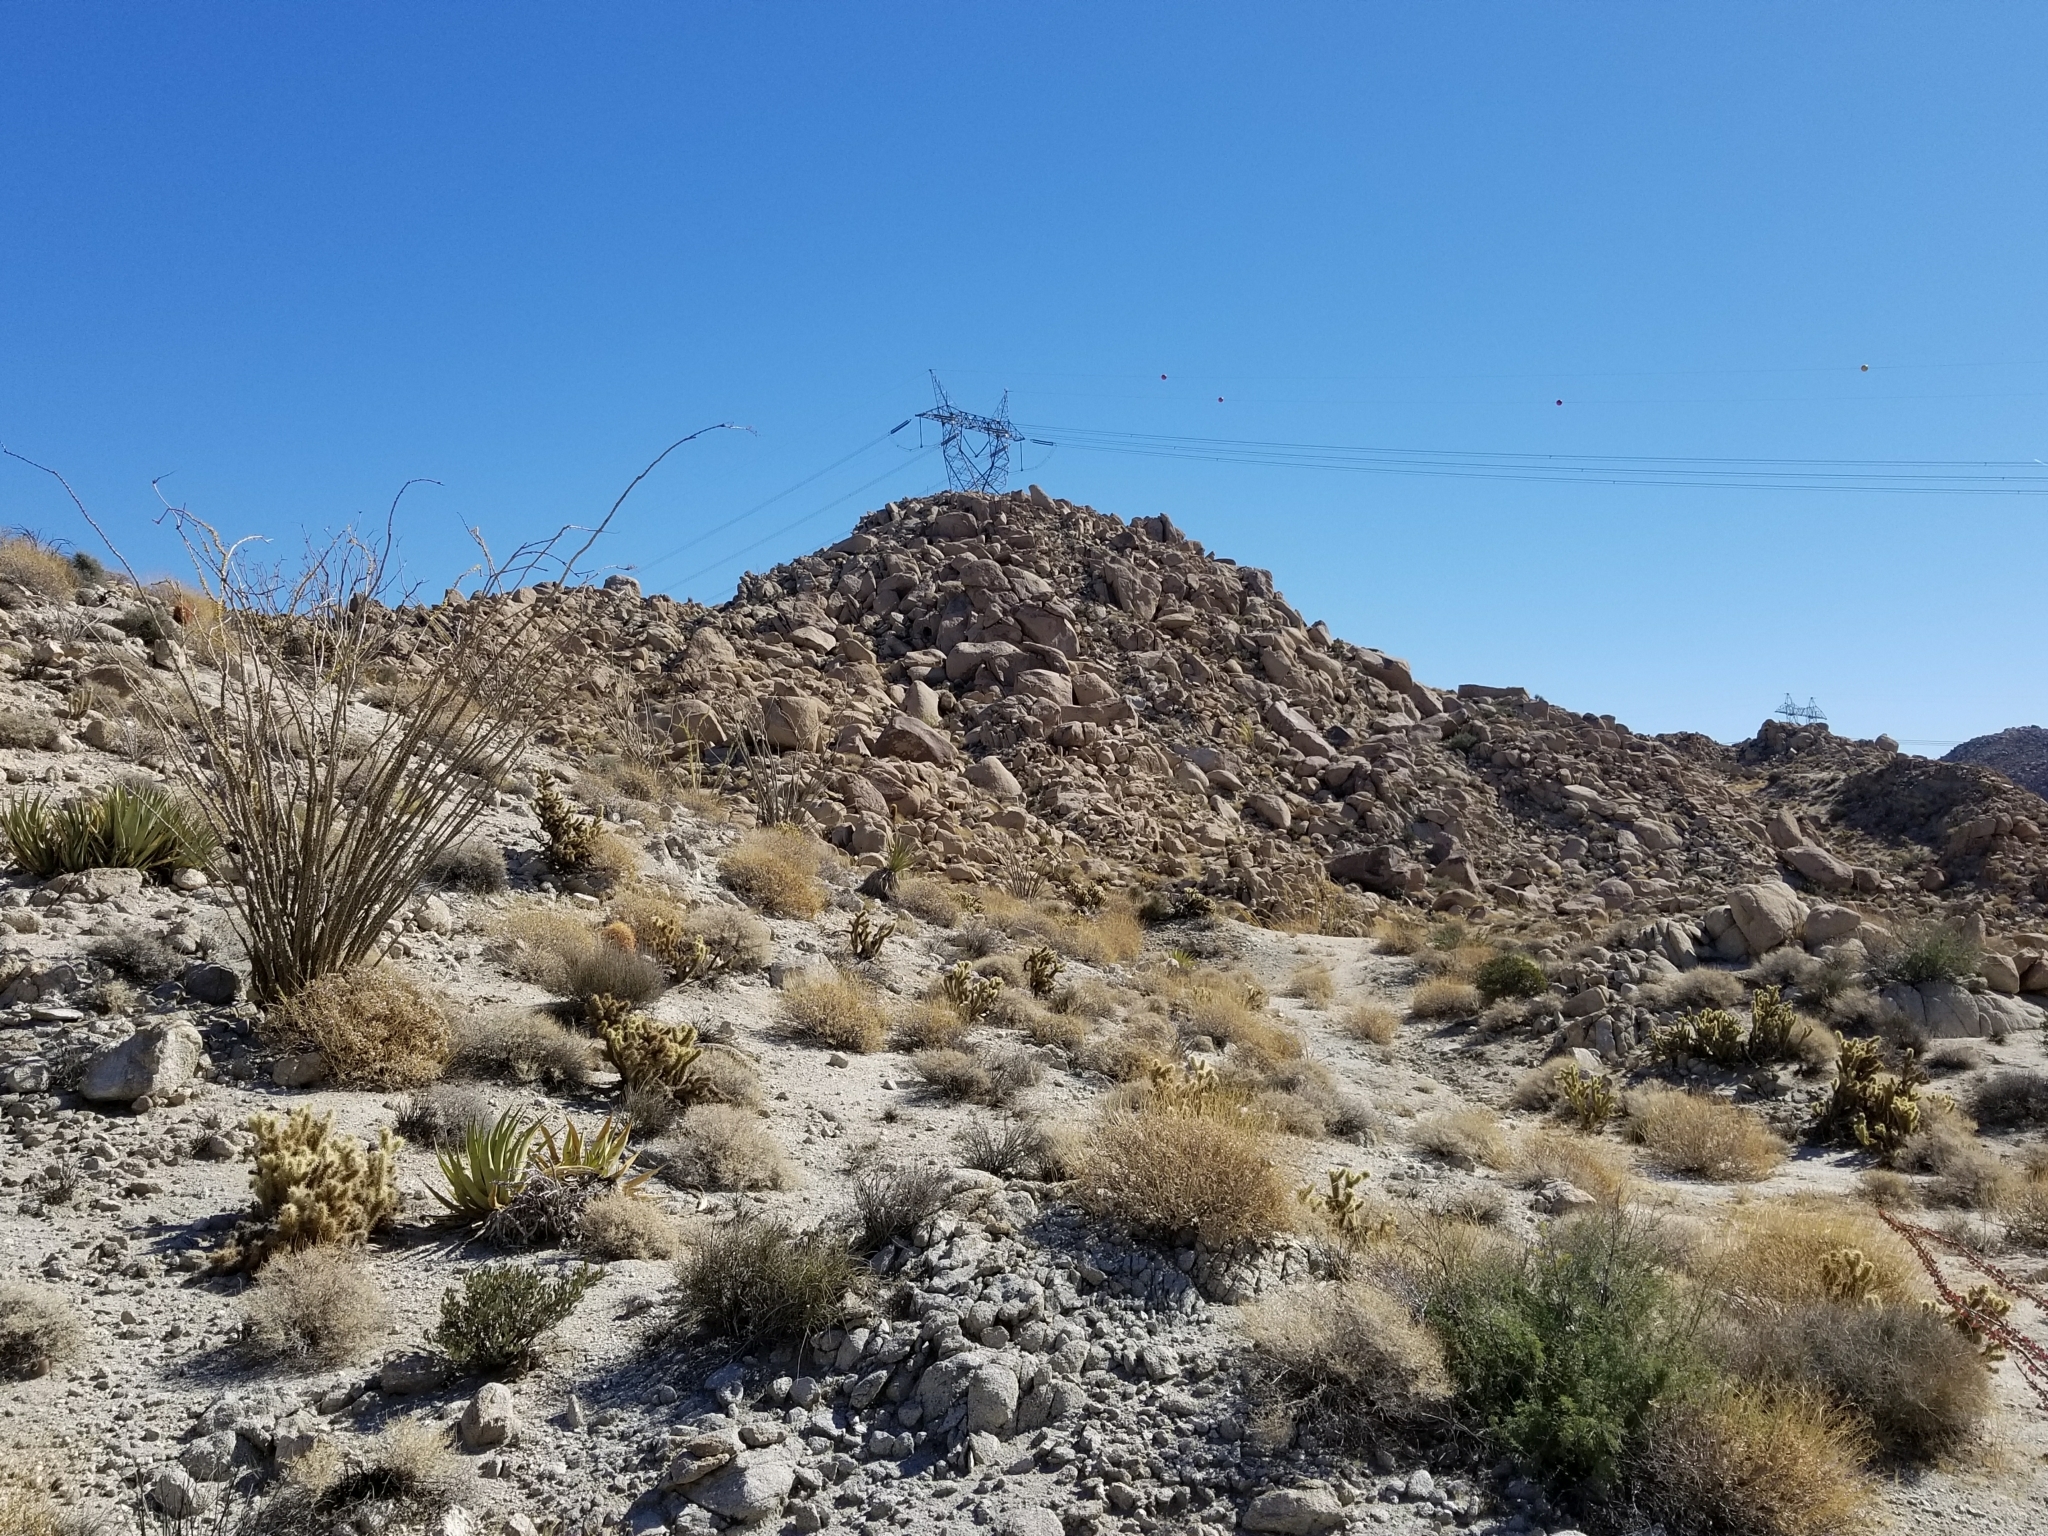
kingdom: Plantae
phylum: Tracheophyta
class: Magnoliopsida
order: Ericales
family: Fouquieriaceae
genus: Fouquieria
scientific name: Fouquieria splendens
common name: Vine-cactus
